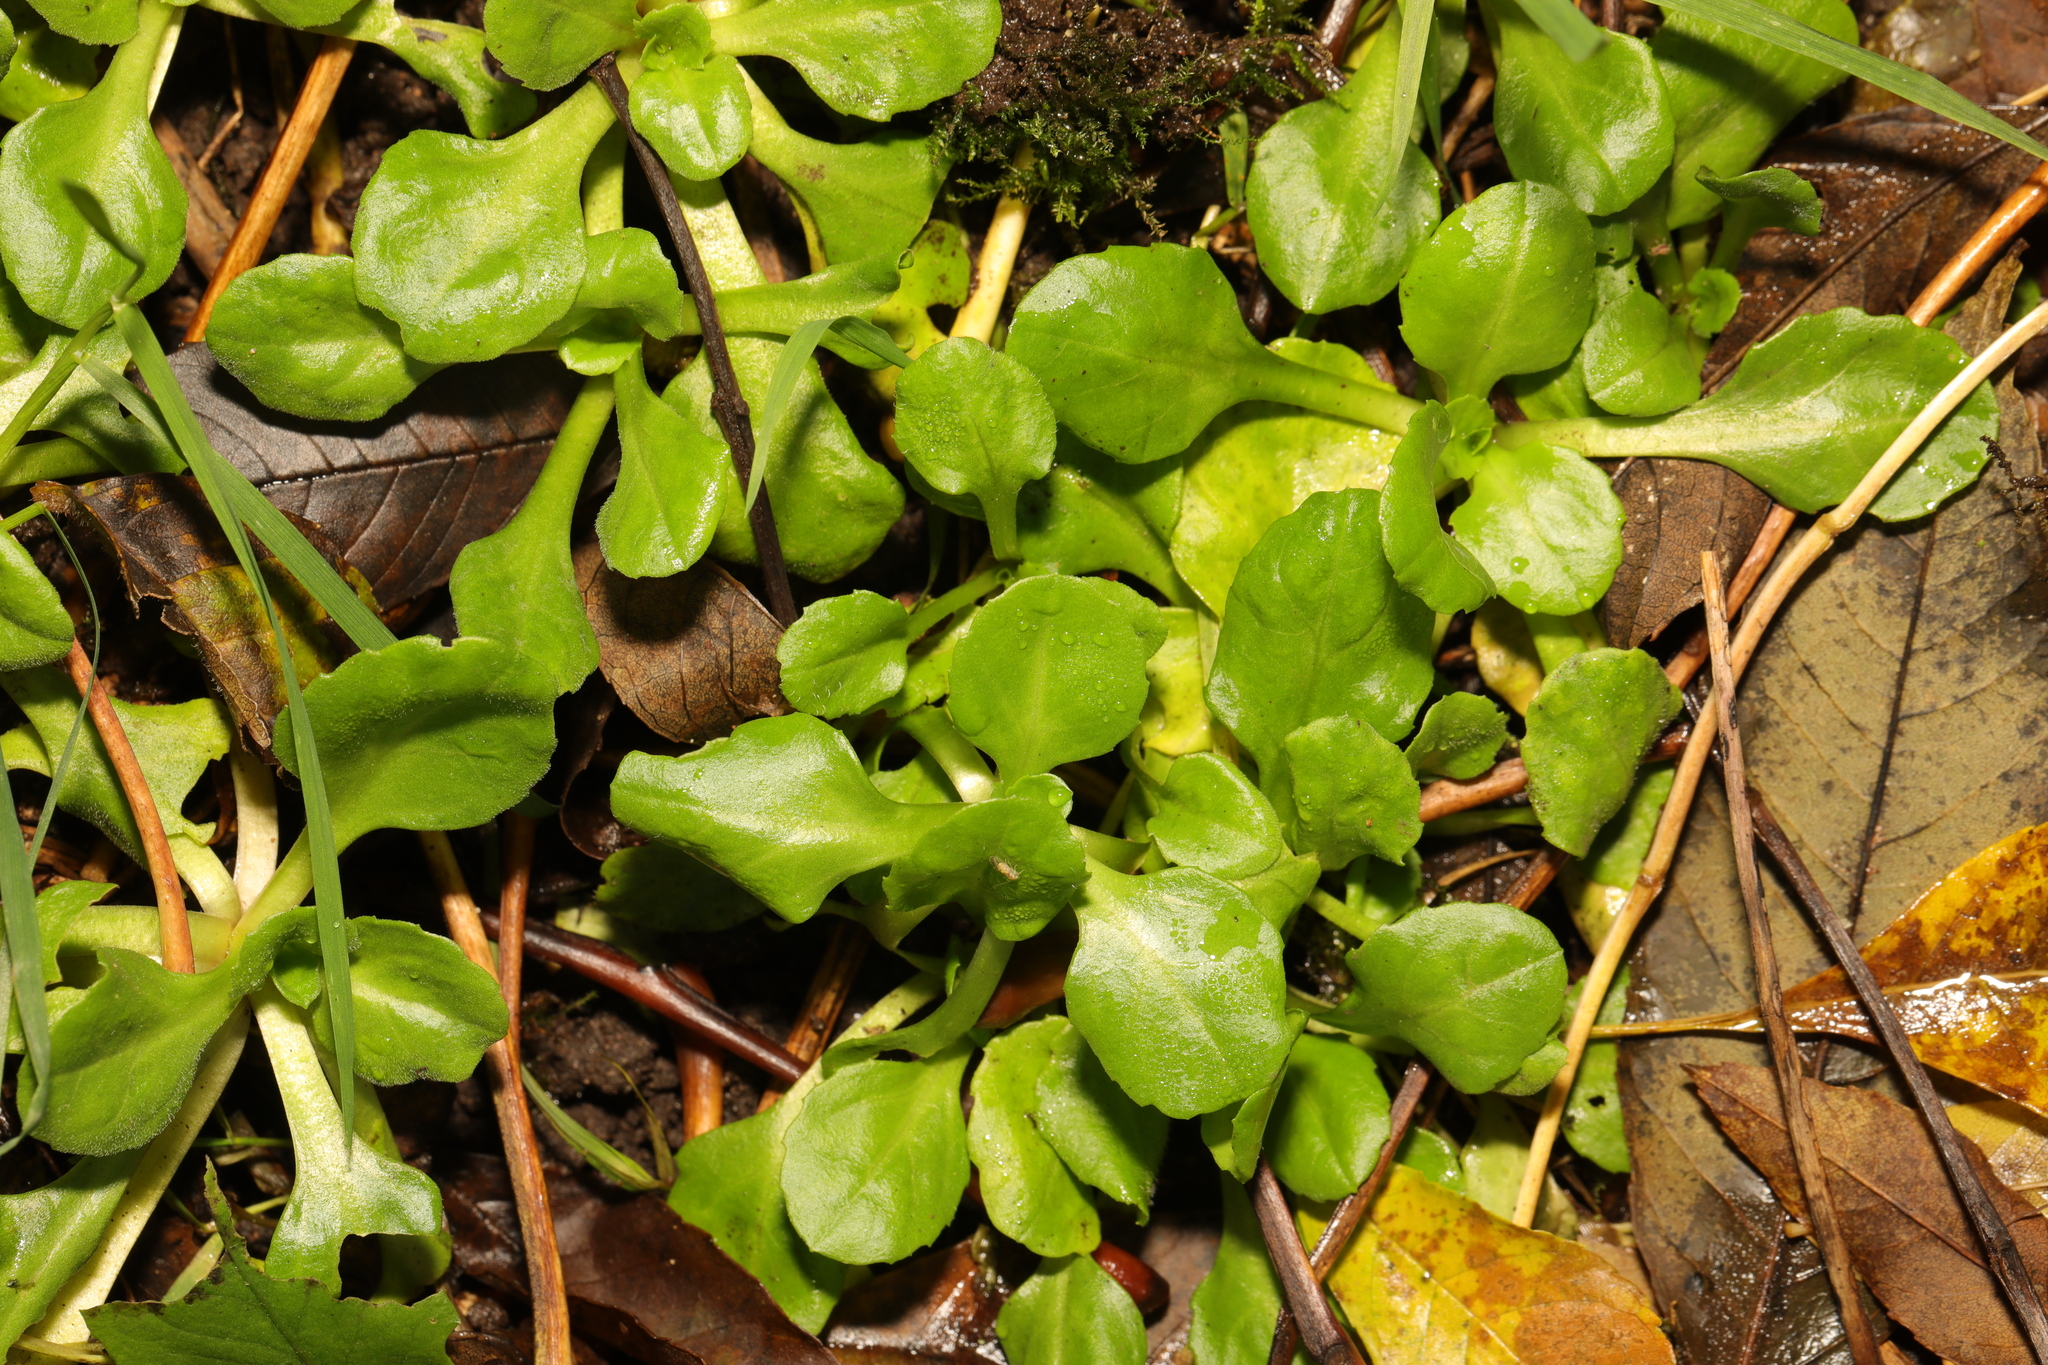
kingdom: Plantae
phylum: Tracheophyta
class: Magnoliopsida
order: Asterales
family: Asteraceae
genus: Bellis
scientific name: Bellis perennis
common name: Lawndaisy
